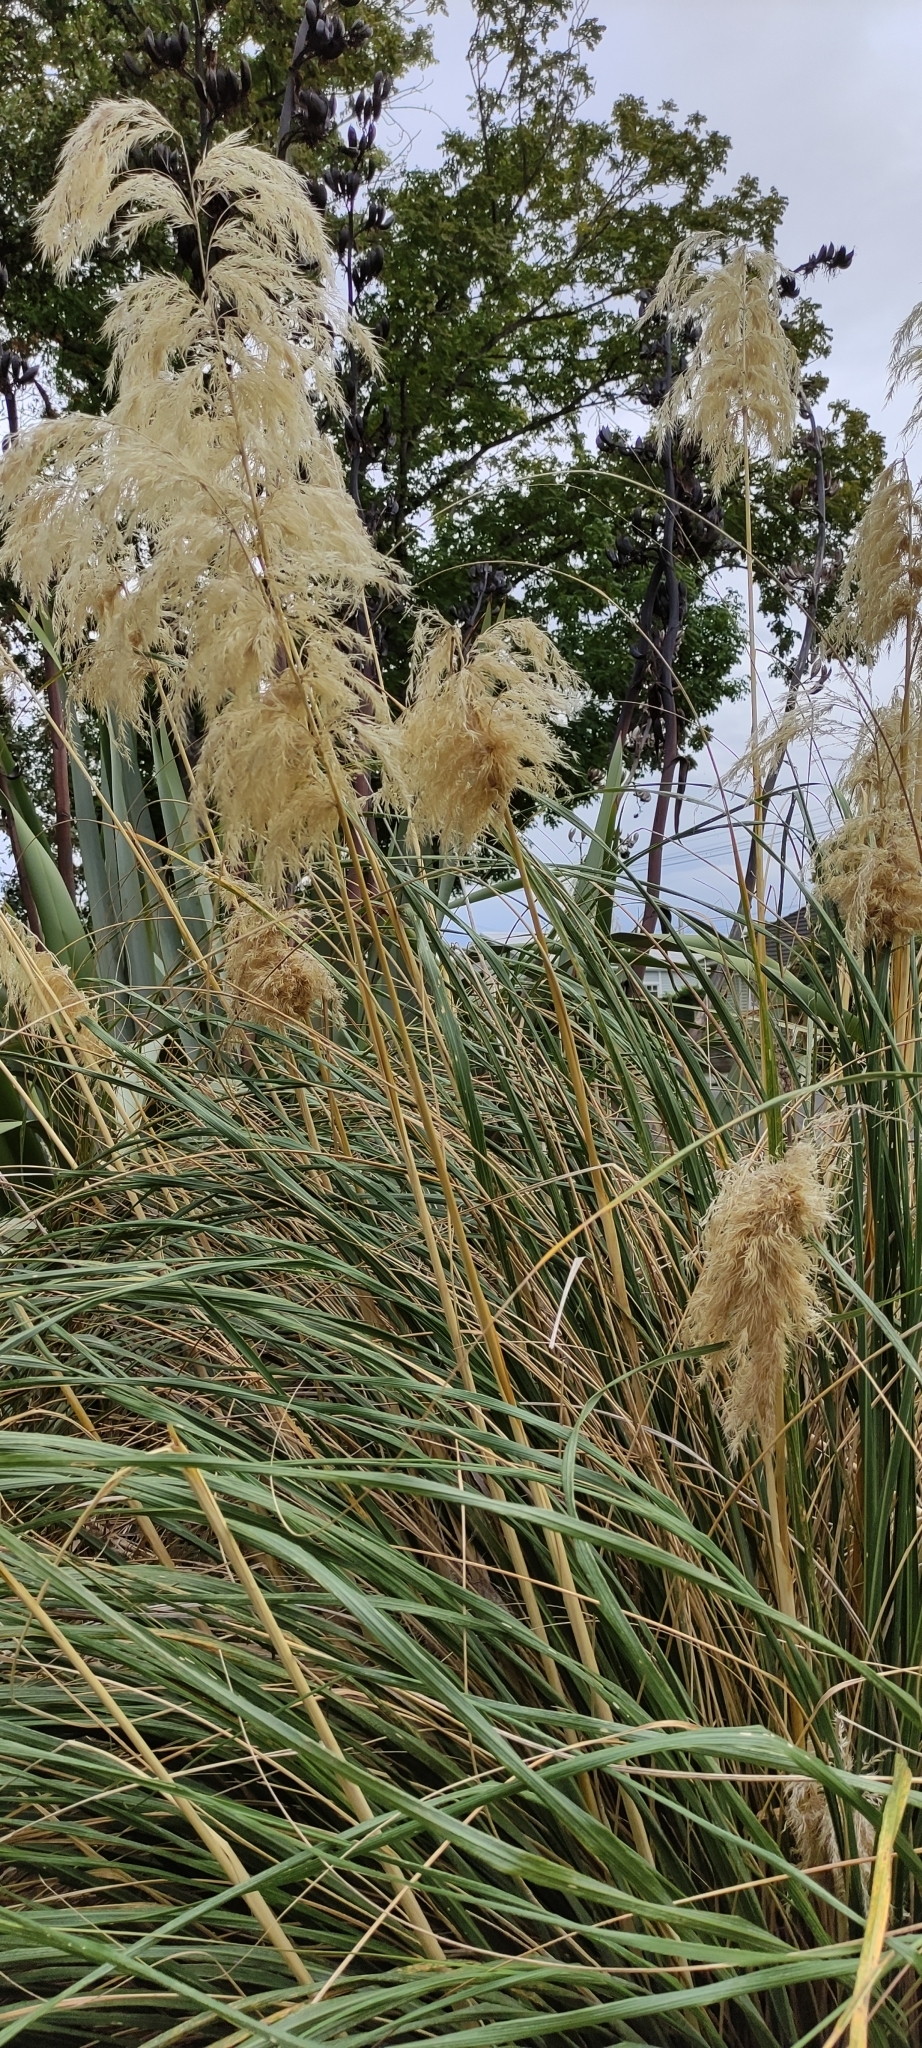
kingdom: Plantae
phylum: Tracheophyta
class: Liliopsida
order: Poales
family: Poaceae
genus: Austroderia
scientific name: Austroderia richardii
